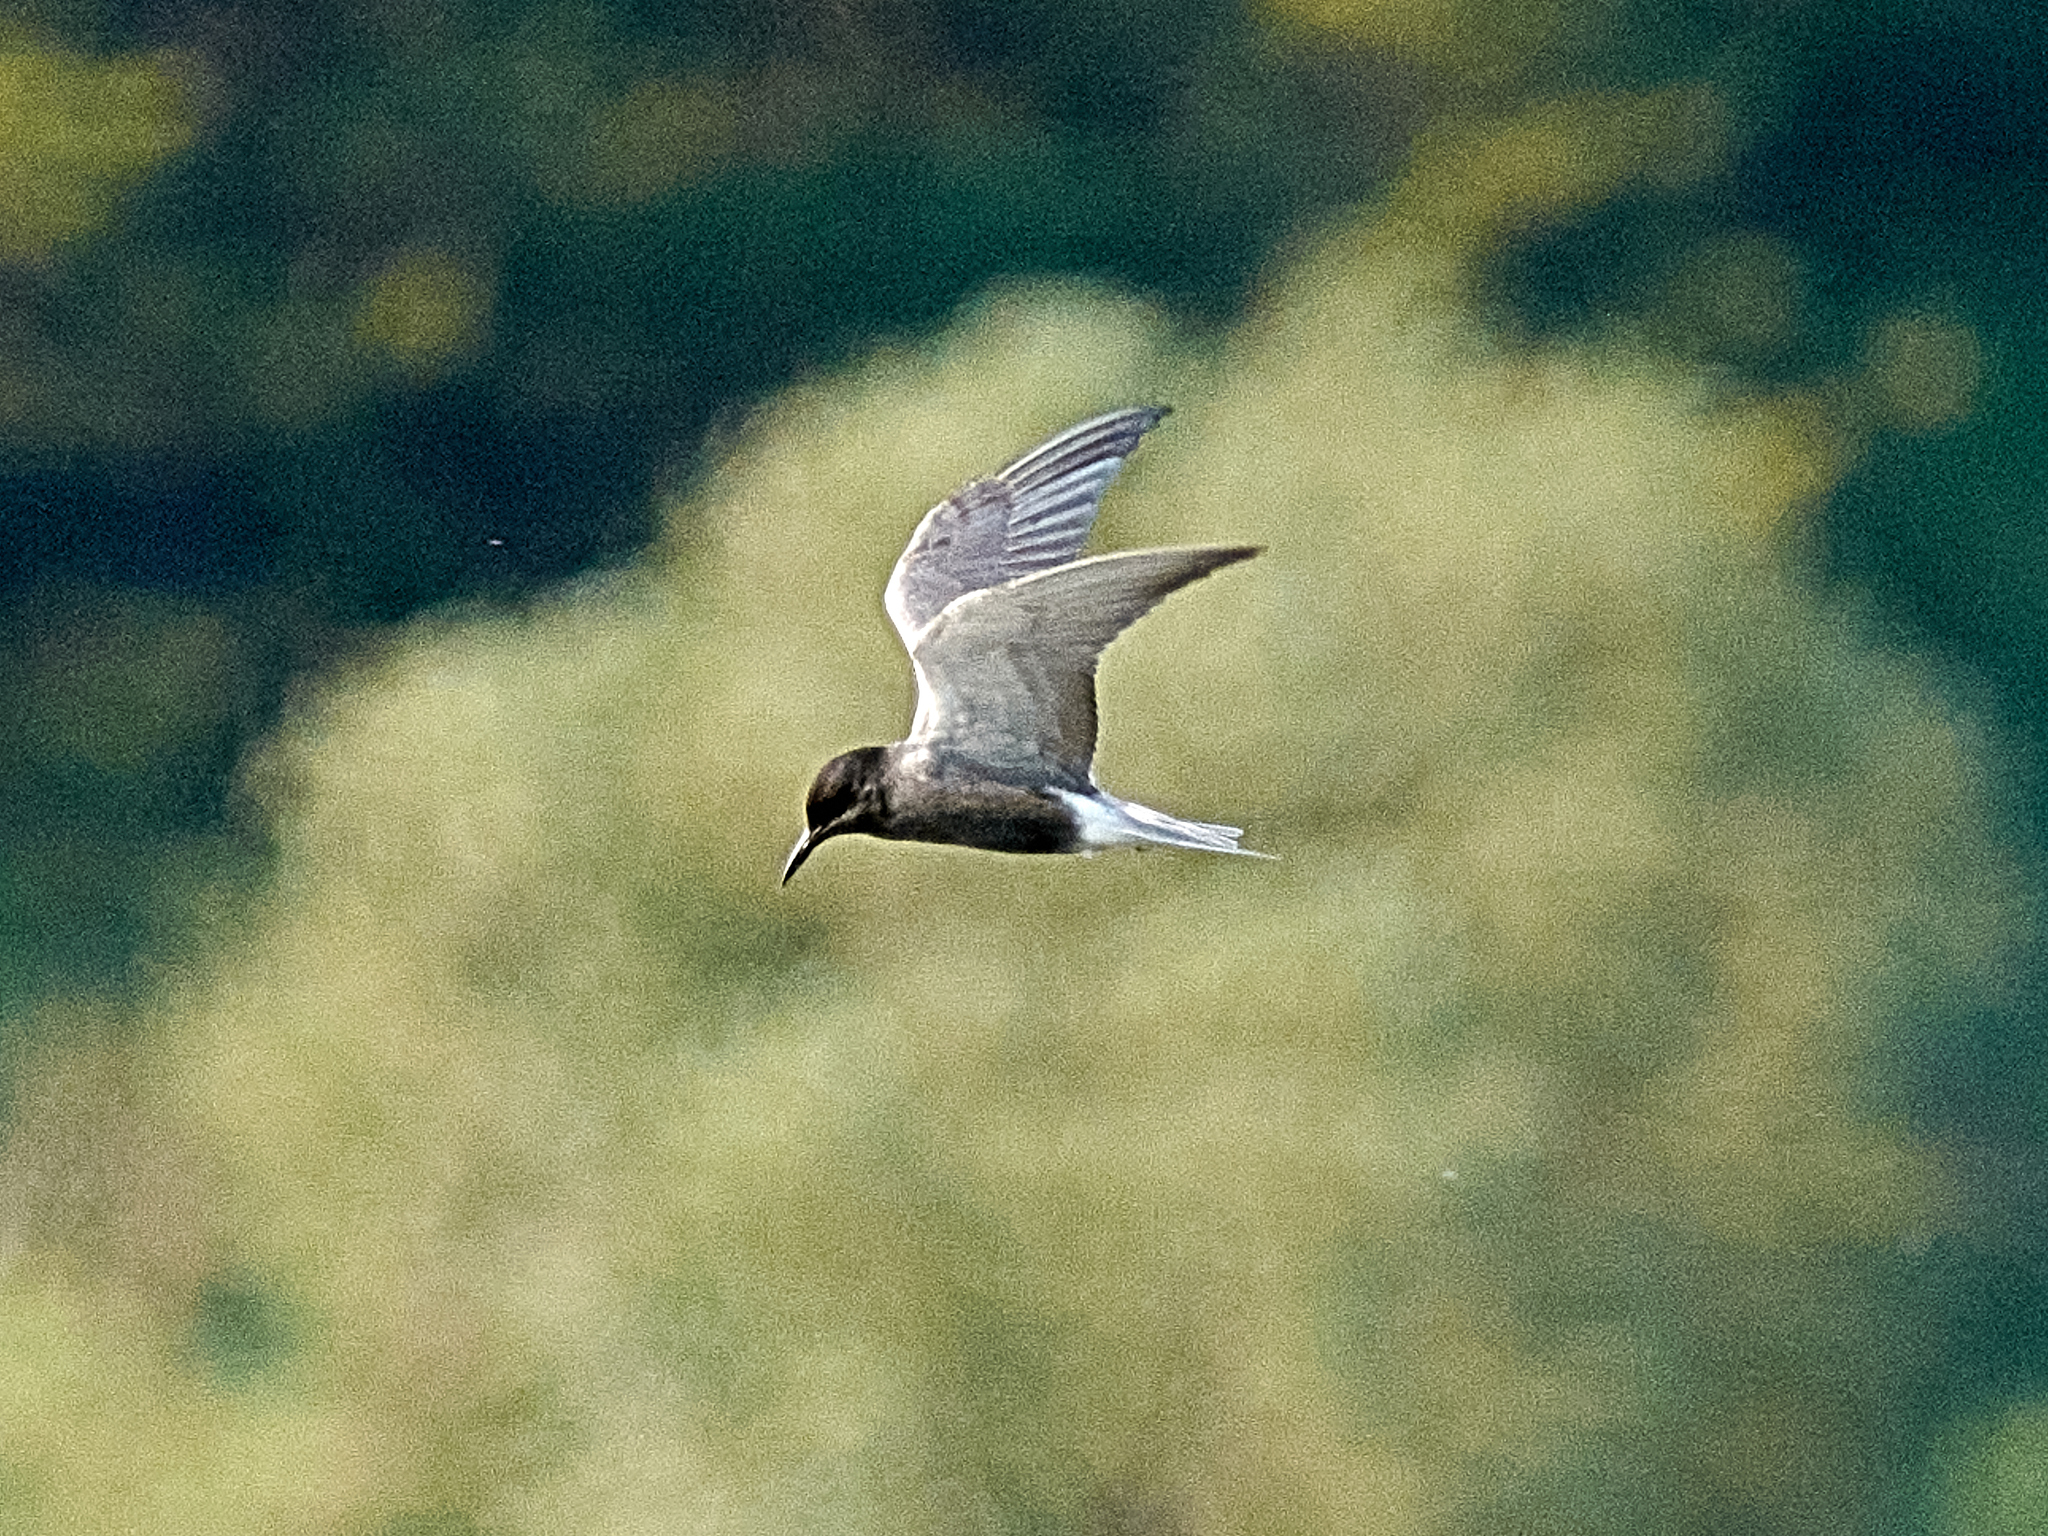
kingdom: Animalia
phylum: Chordata
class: Aves
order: Charadriiformes
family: Laridae
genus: Chlidonias
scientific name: Chlidonias niger
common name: Black tern
